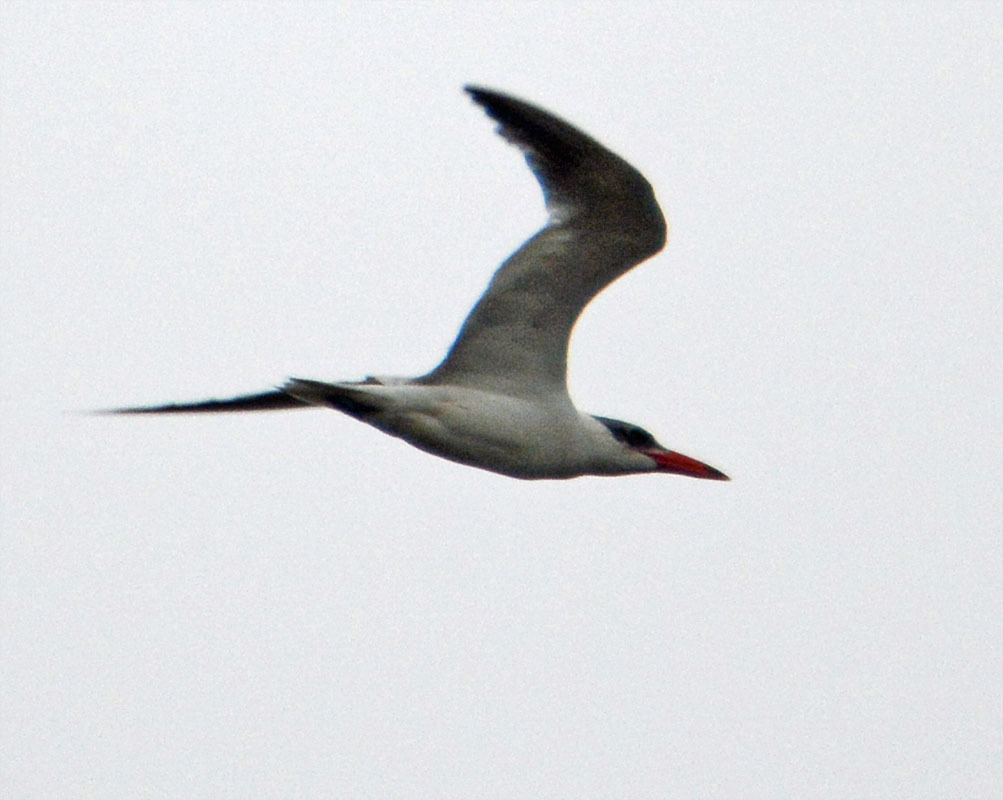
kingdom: Animalia
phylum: Chordata
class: Aves
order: Charadriiformes
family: Laridae
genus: Hydroprogne
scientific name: Hydroprogne caspia
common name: Caspian tern
